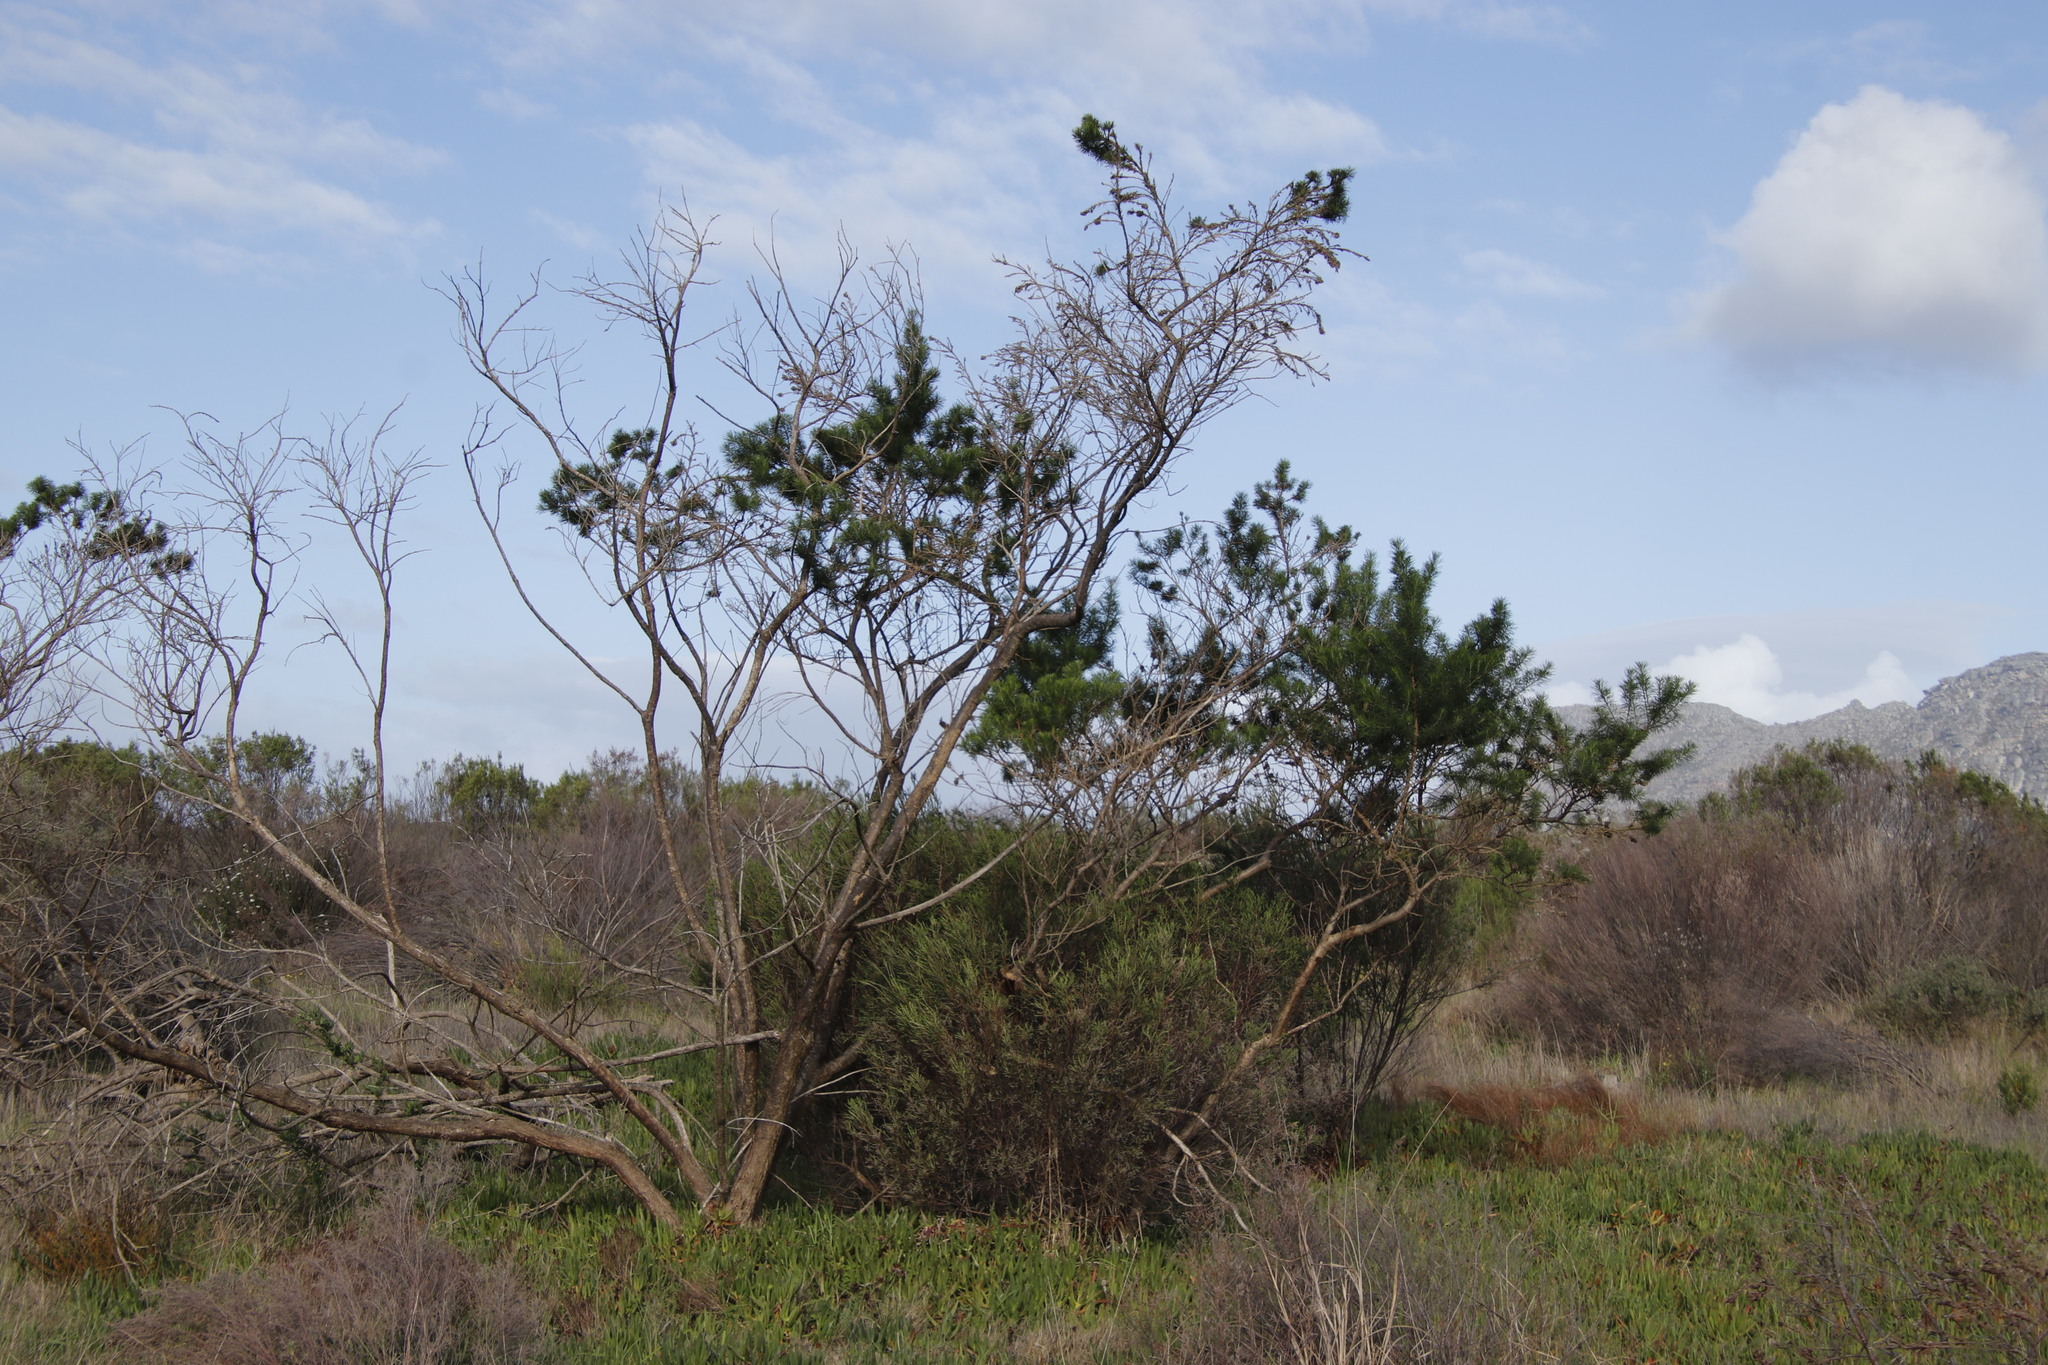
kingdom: Plantae
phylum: Tracheophyta
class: Magnoliopsida
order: Fabales
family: Fabaceae
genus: Psoralea
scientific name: Psoralea pinnata
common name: African scurfpea
